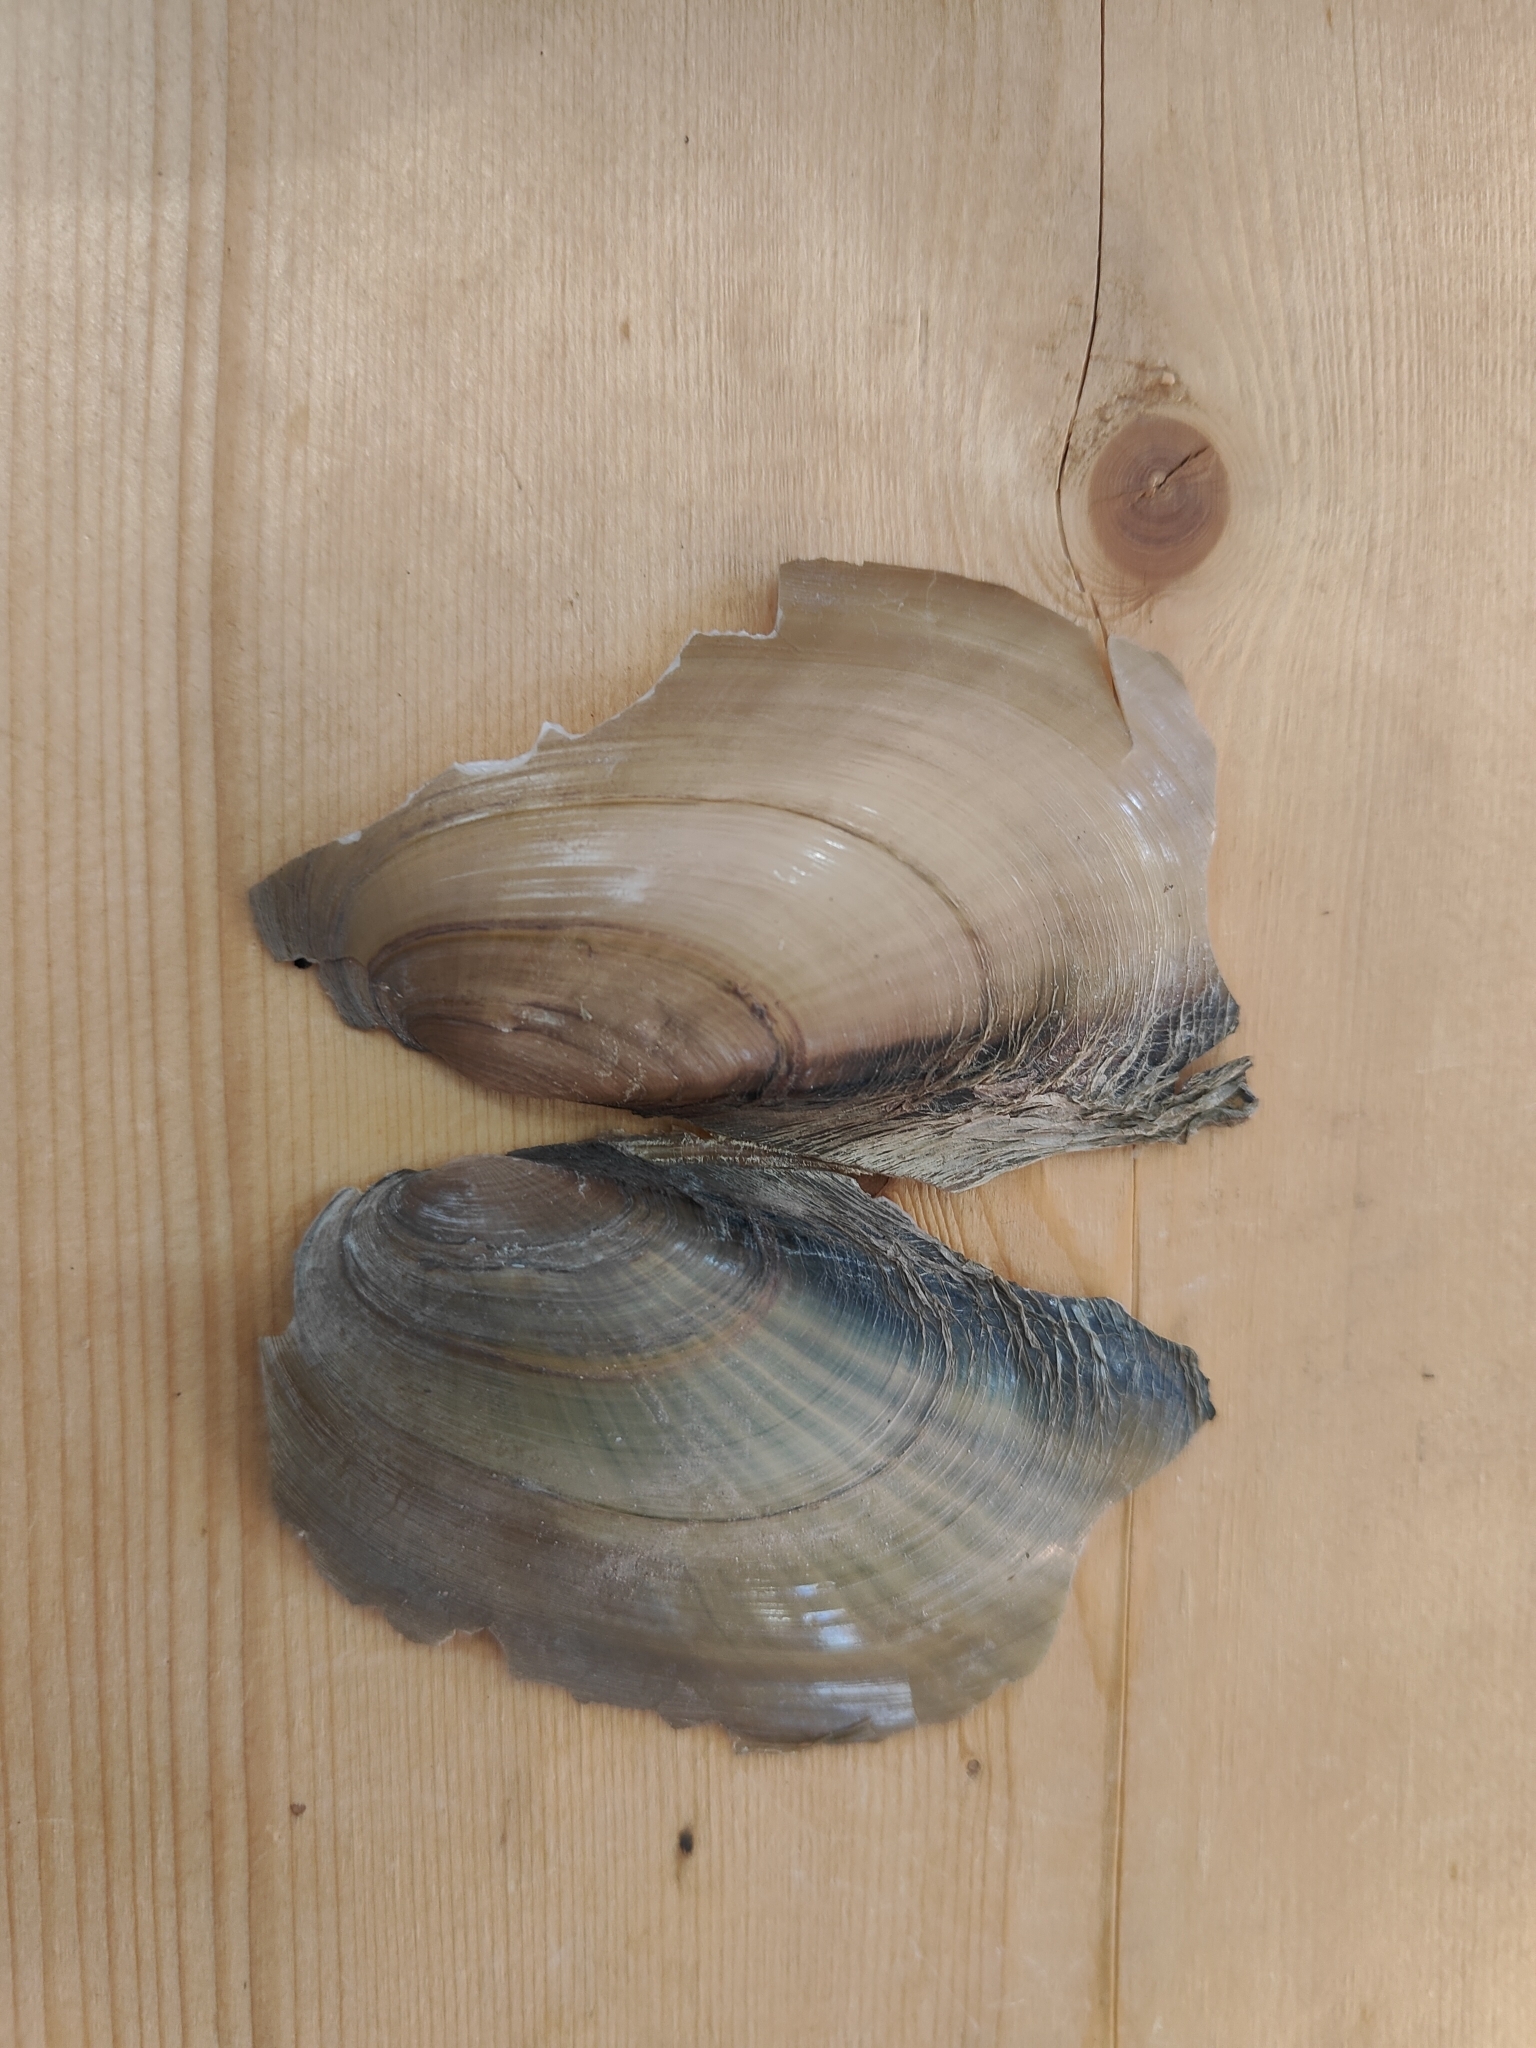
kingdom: Animalia
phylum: Mollusca
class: Bivalvia
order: Unionida
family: Unionidae
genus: Potamilus
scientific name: Potamilus fragilis
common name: Fragile papershell
